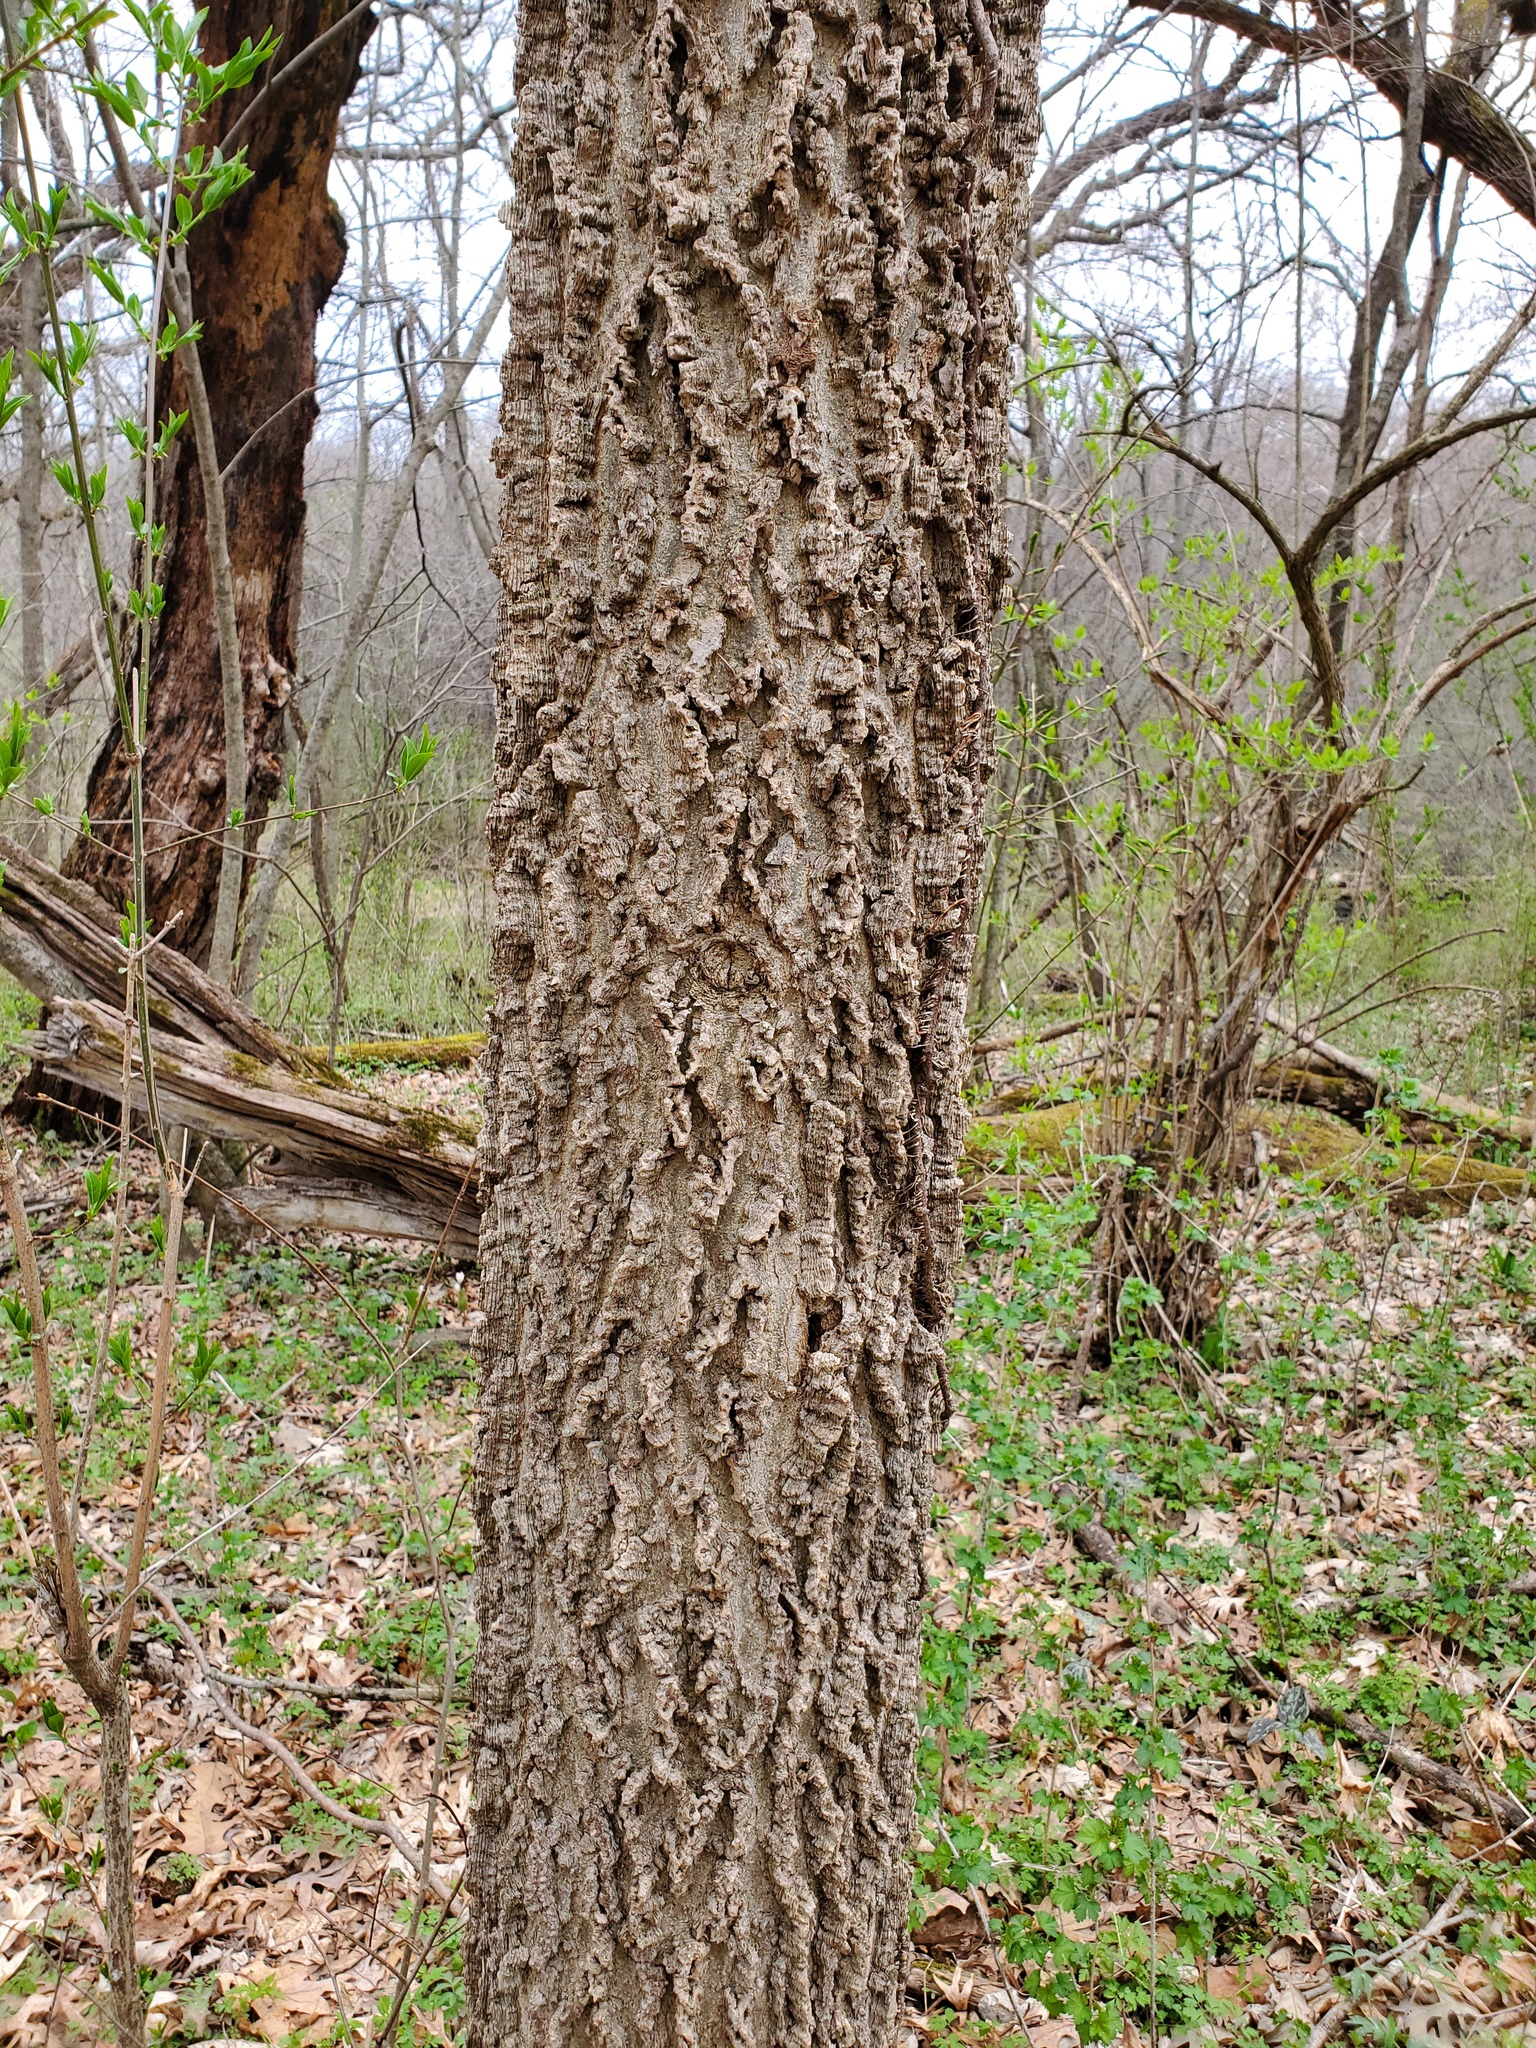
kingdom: Plantae
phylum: Tracheophyta
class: Magnoliopsida
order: Rosales
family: Cannabaceae
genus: Celtis
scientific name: Celtis occidentalis
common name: Common hackberry
